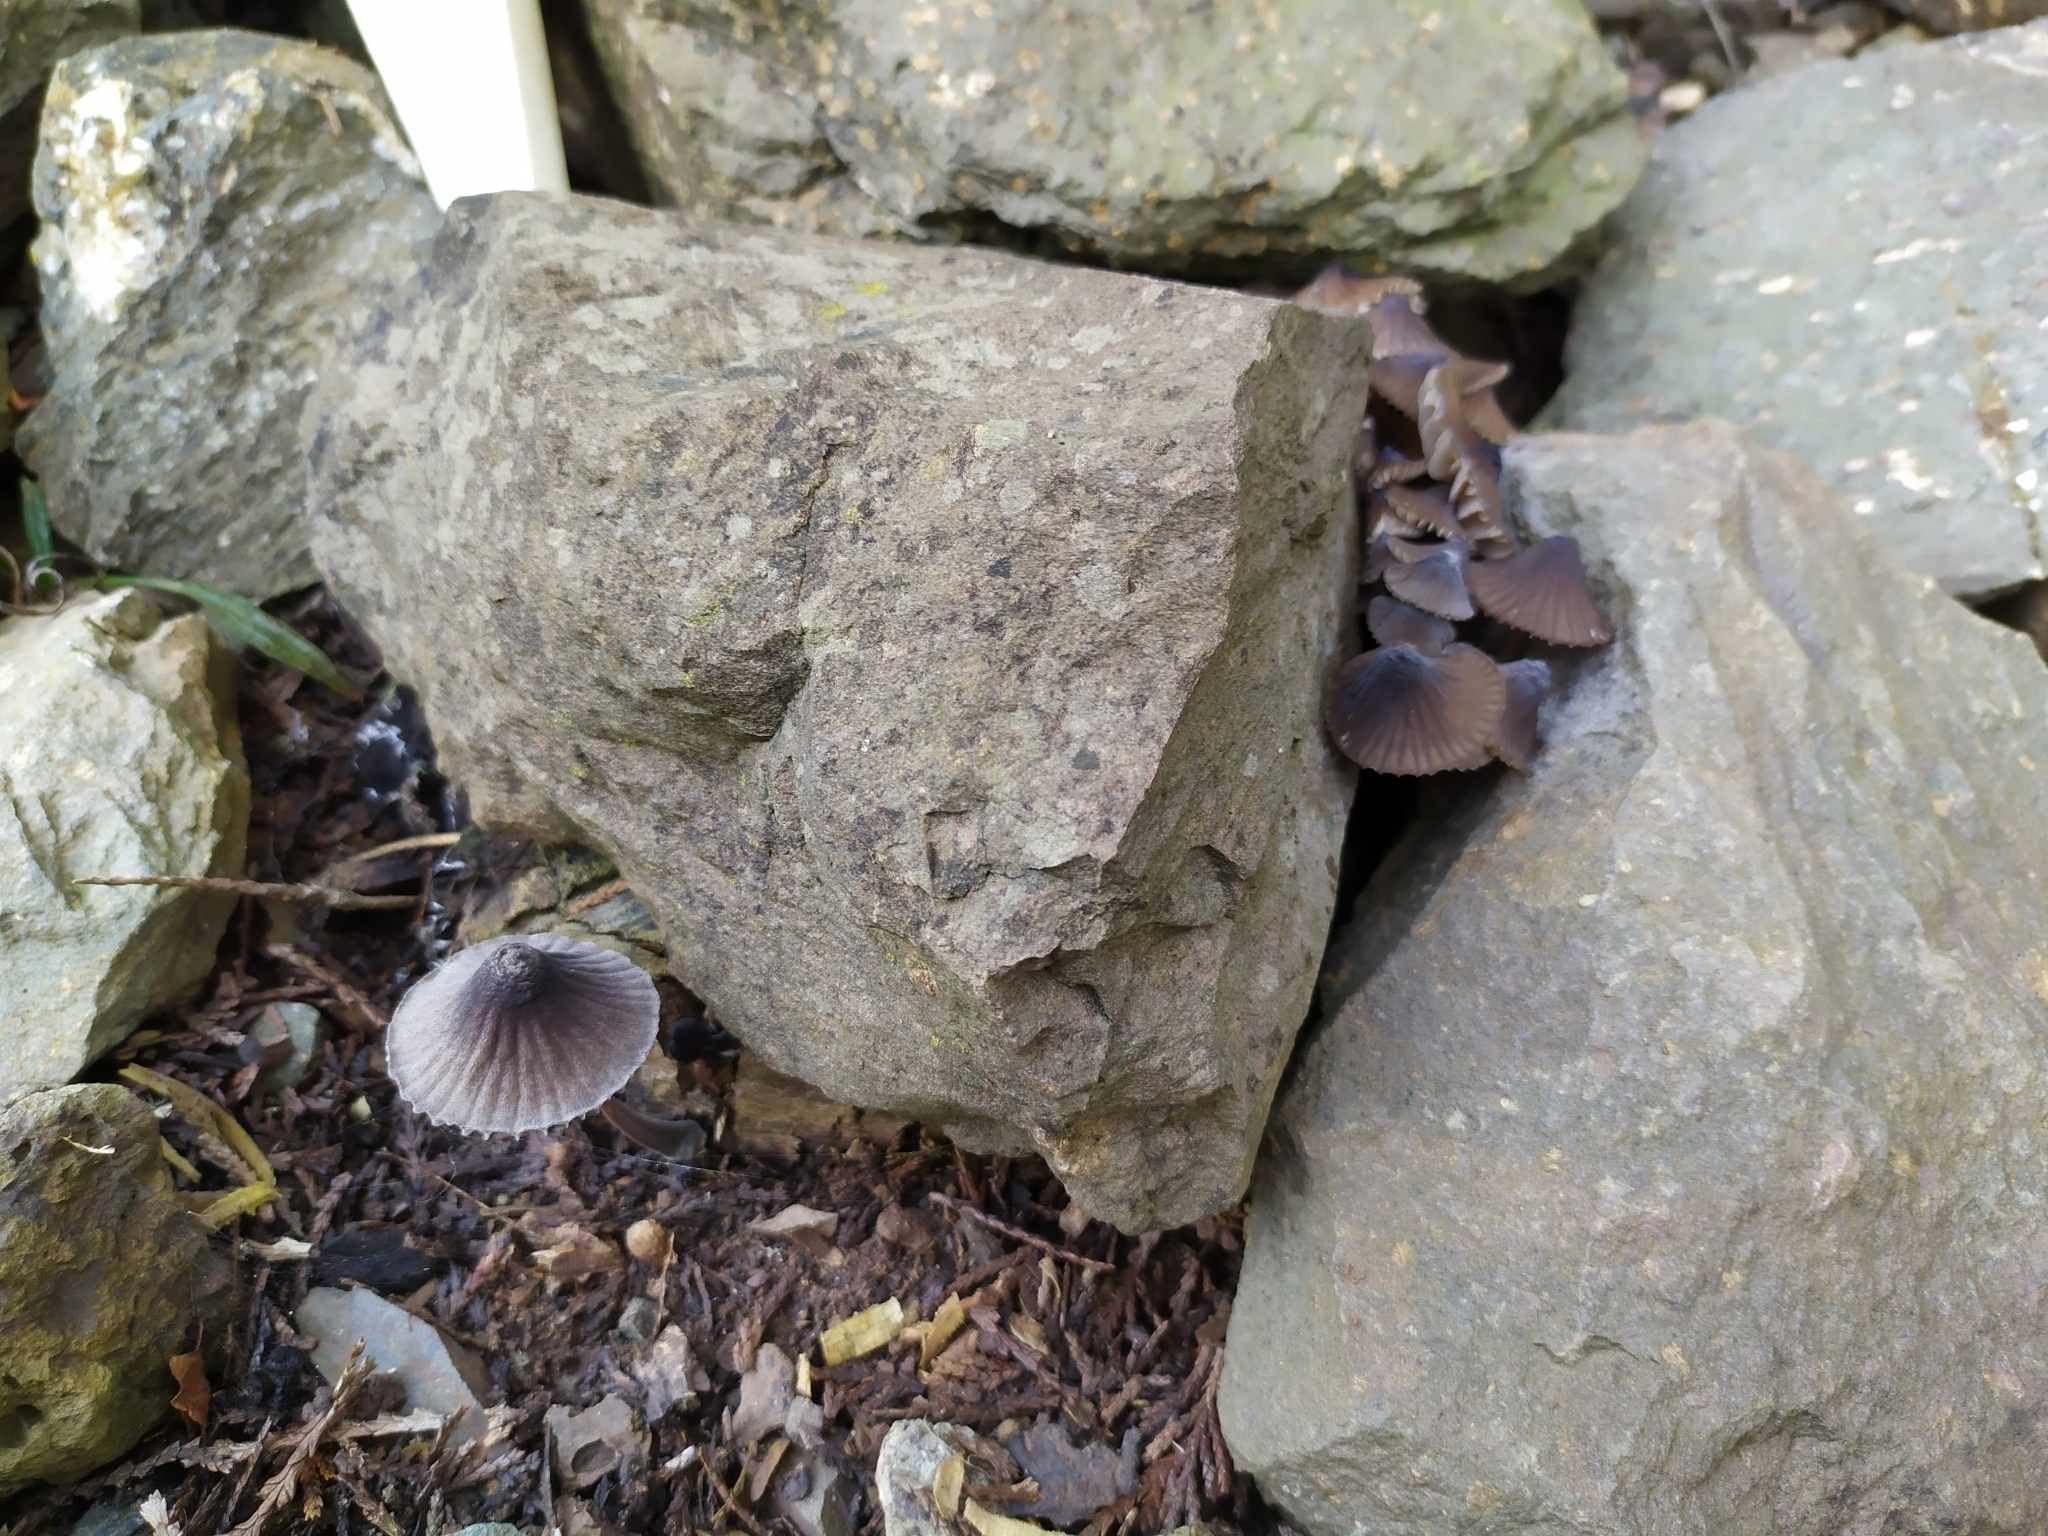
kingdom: Fungi
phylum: Basidiomycota
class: Agaricomycetes
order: Agaricales
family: Mycenaceae
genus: Mycena
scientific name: Mycena leptocephala
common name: Nitrous bonnet
